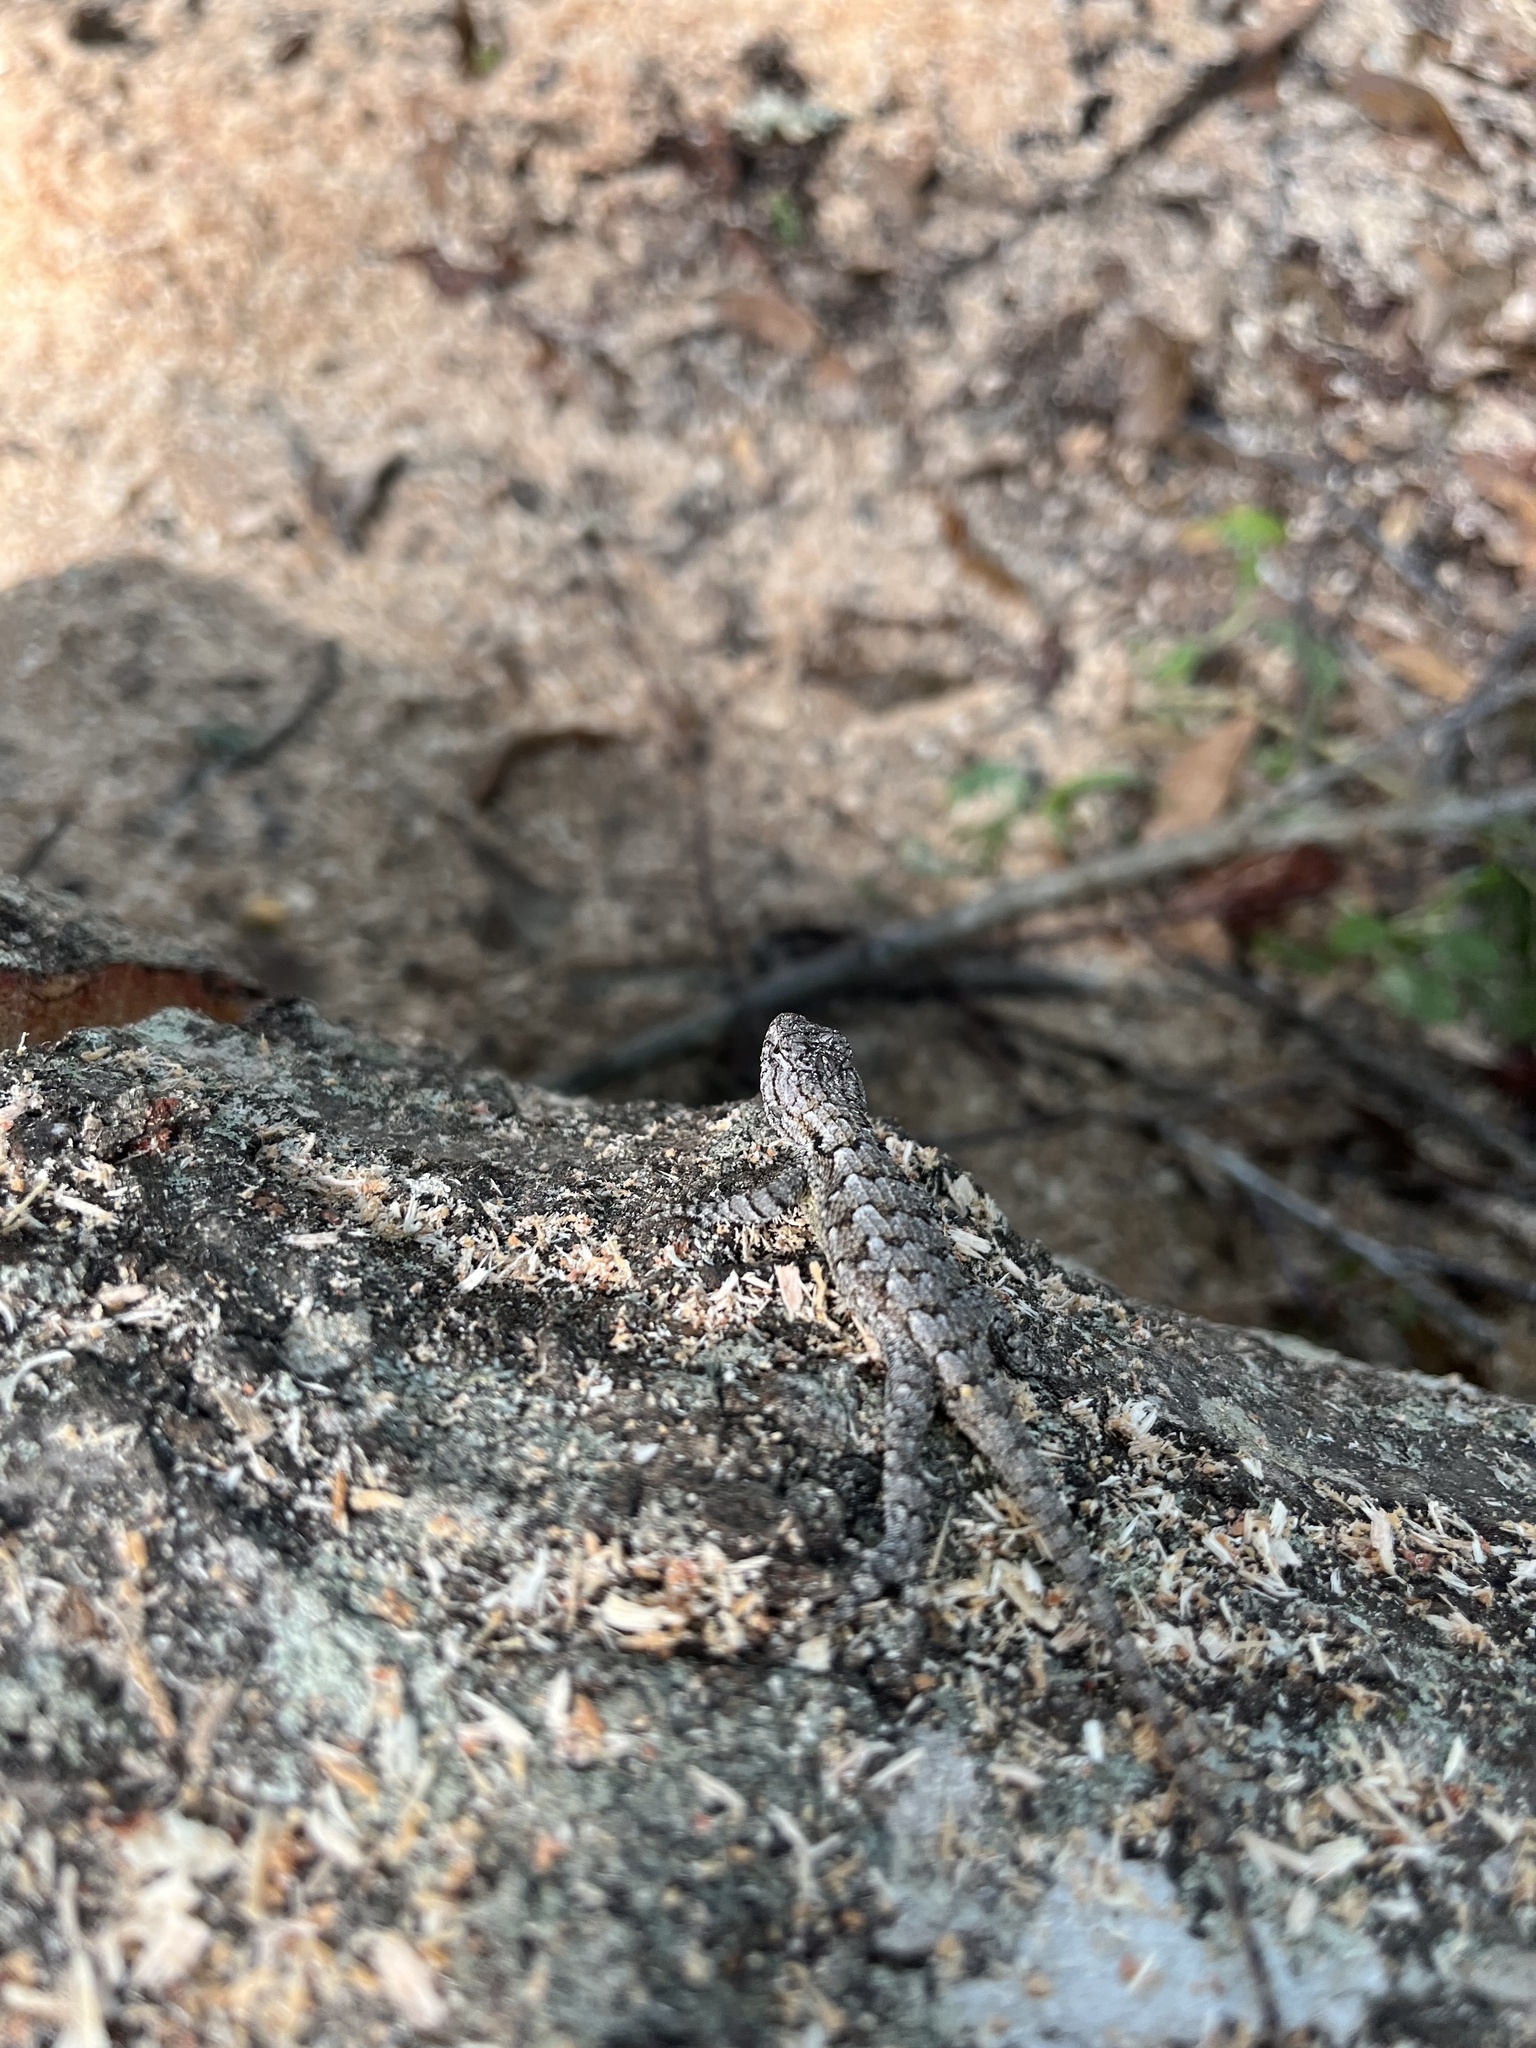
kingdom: Animalia
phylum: Chordata
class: Squamata
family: Phrynosomatidae
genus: Sceloporus
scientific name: Sceloporus undulatus
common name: Eastern fence lizard
